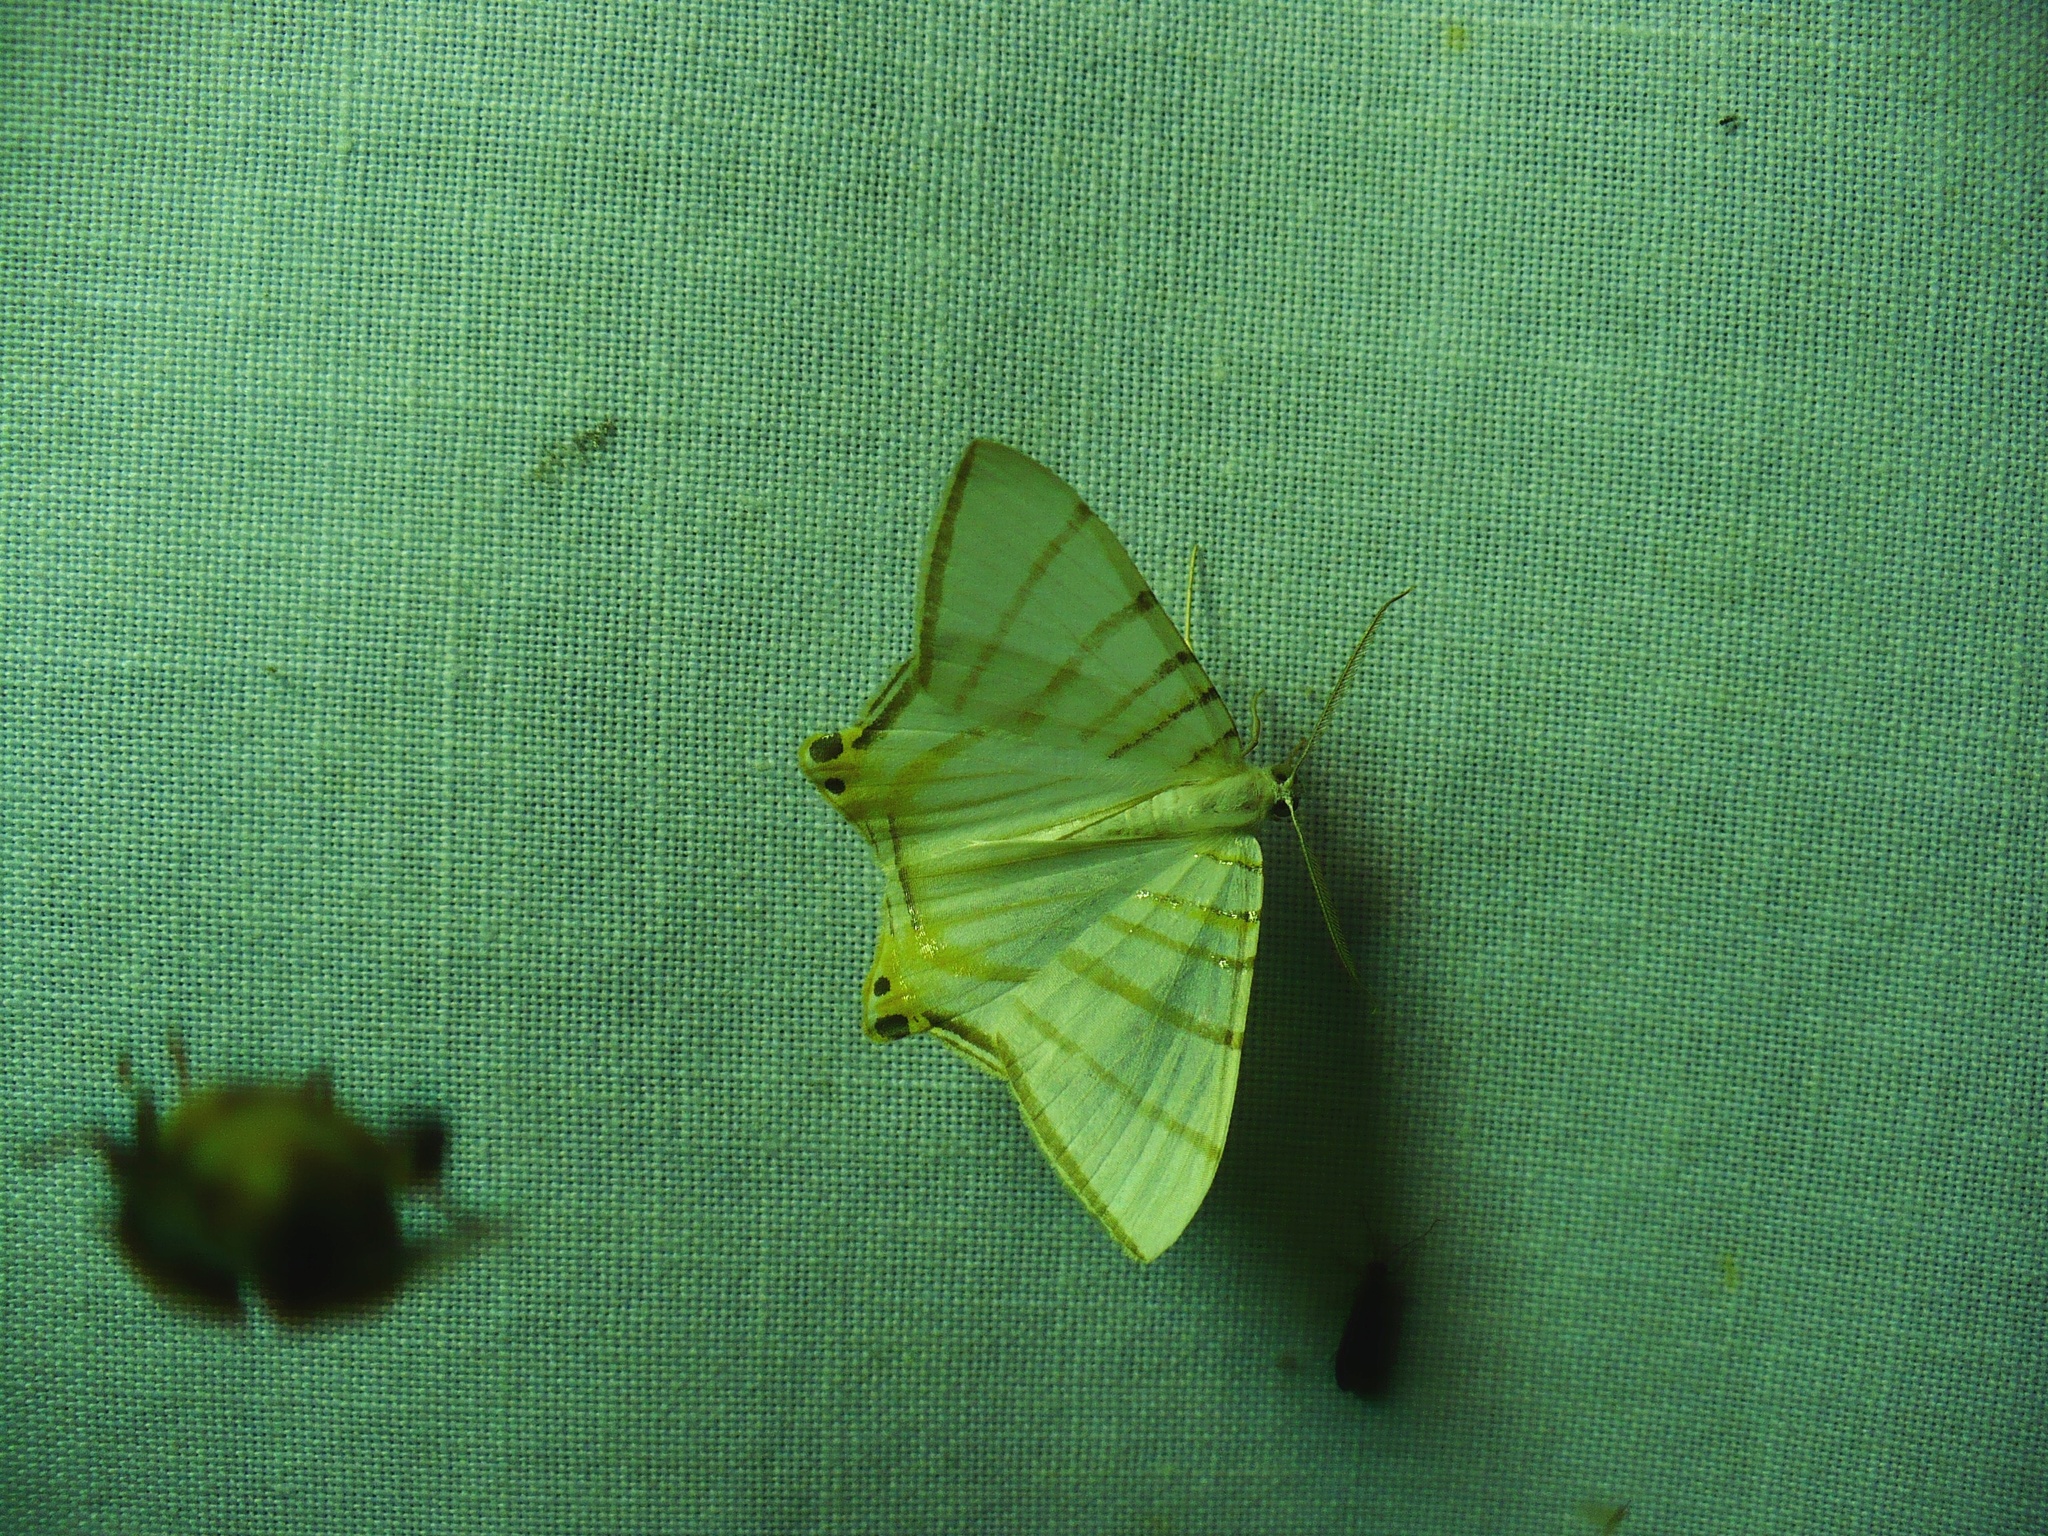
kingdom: Animalia
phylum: Arthropoda
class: Insecta
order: Lepidoptera
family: Geometridae
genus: Phrygionis
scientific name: Phrygionis platinata
